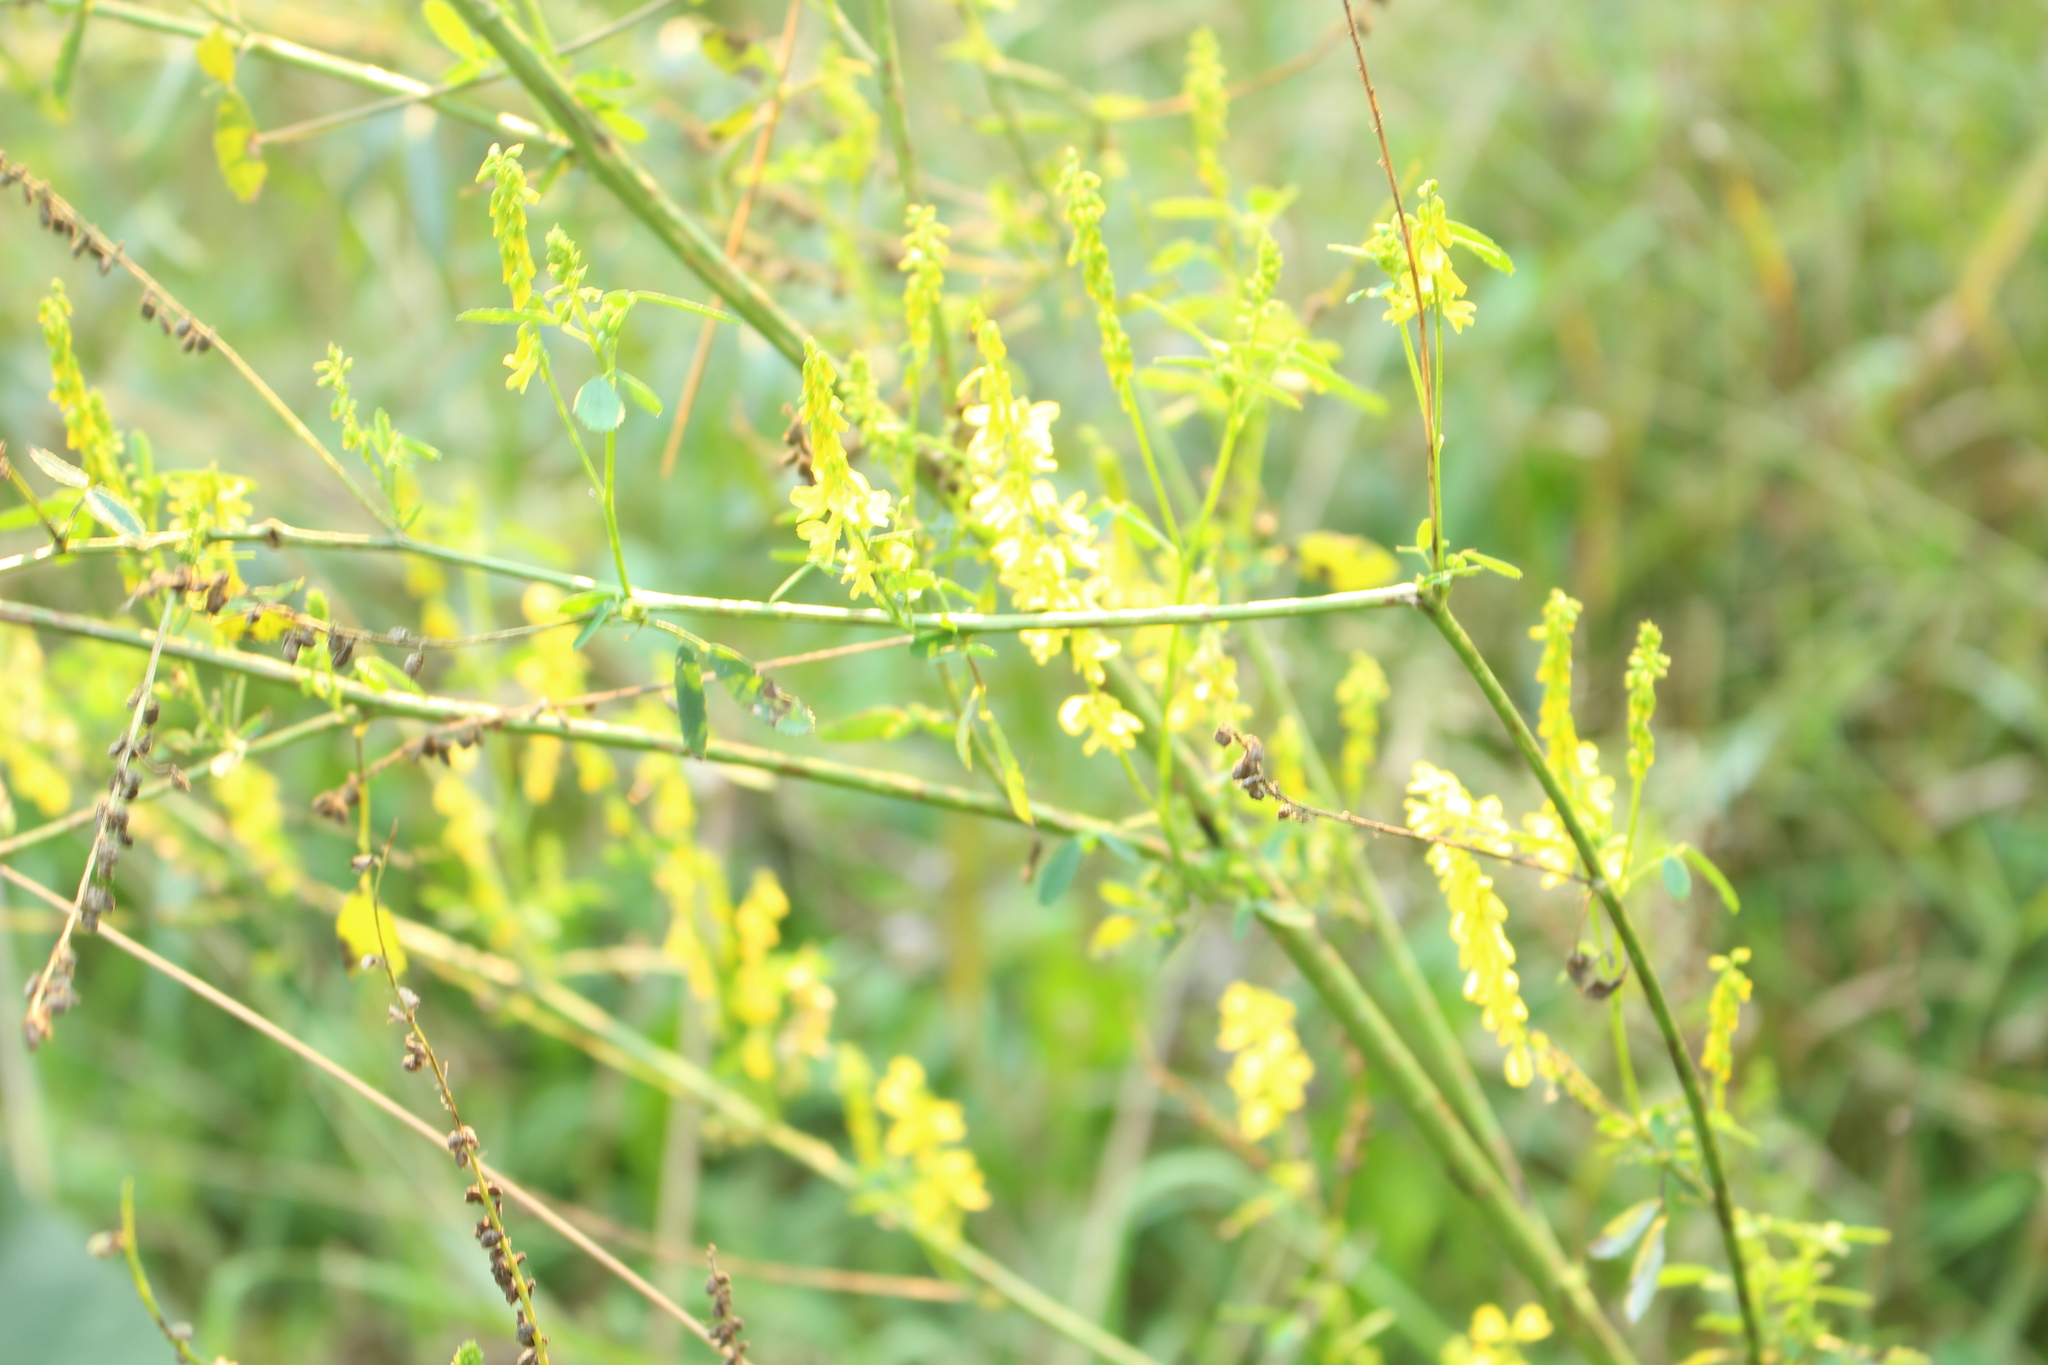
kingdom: Plantae
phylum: Tracheophyta
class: Magnoliopsida
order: Fabales
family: Fabaceae
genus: Melilotus
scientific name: Melilotus officinalis
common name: Sweetclover
